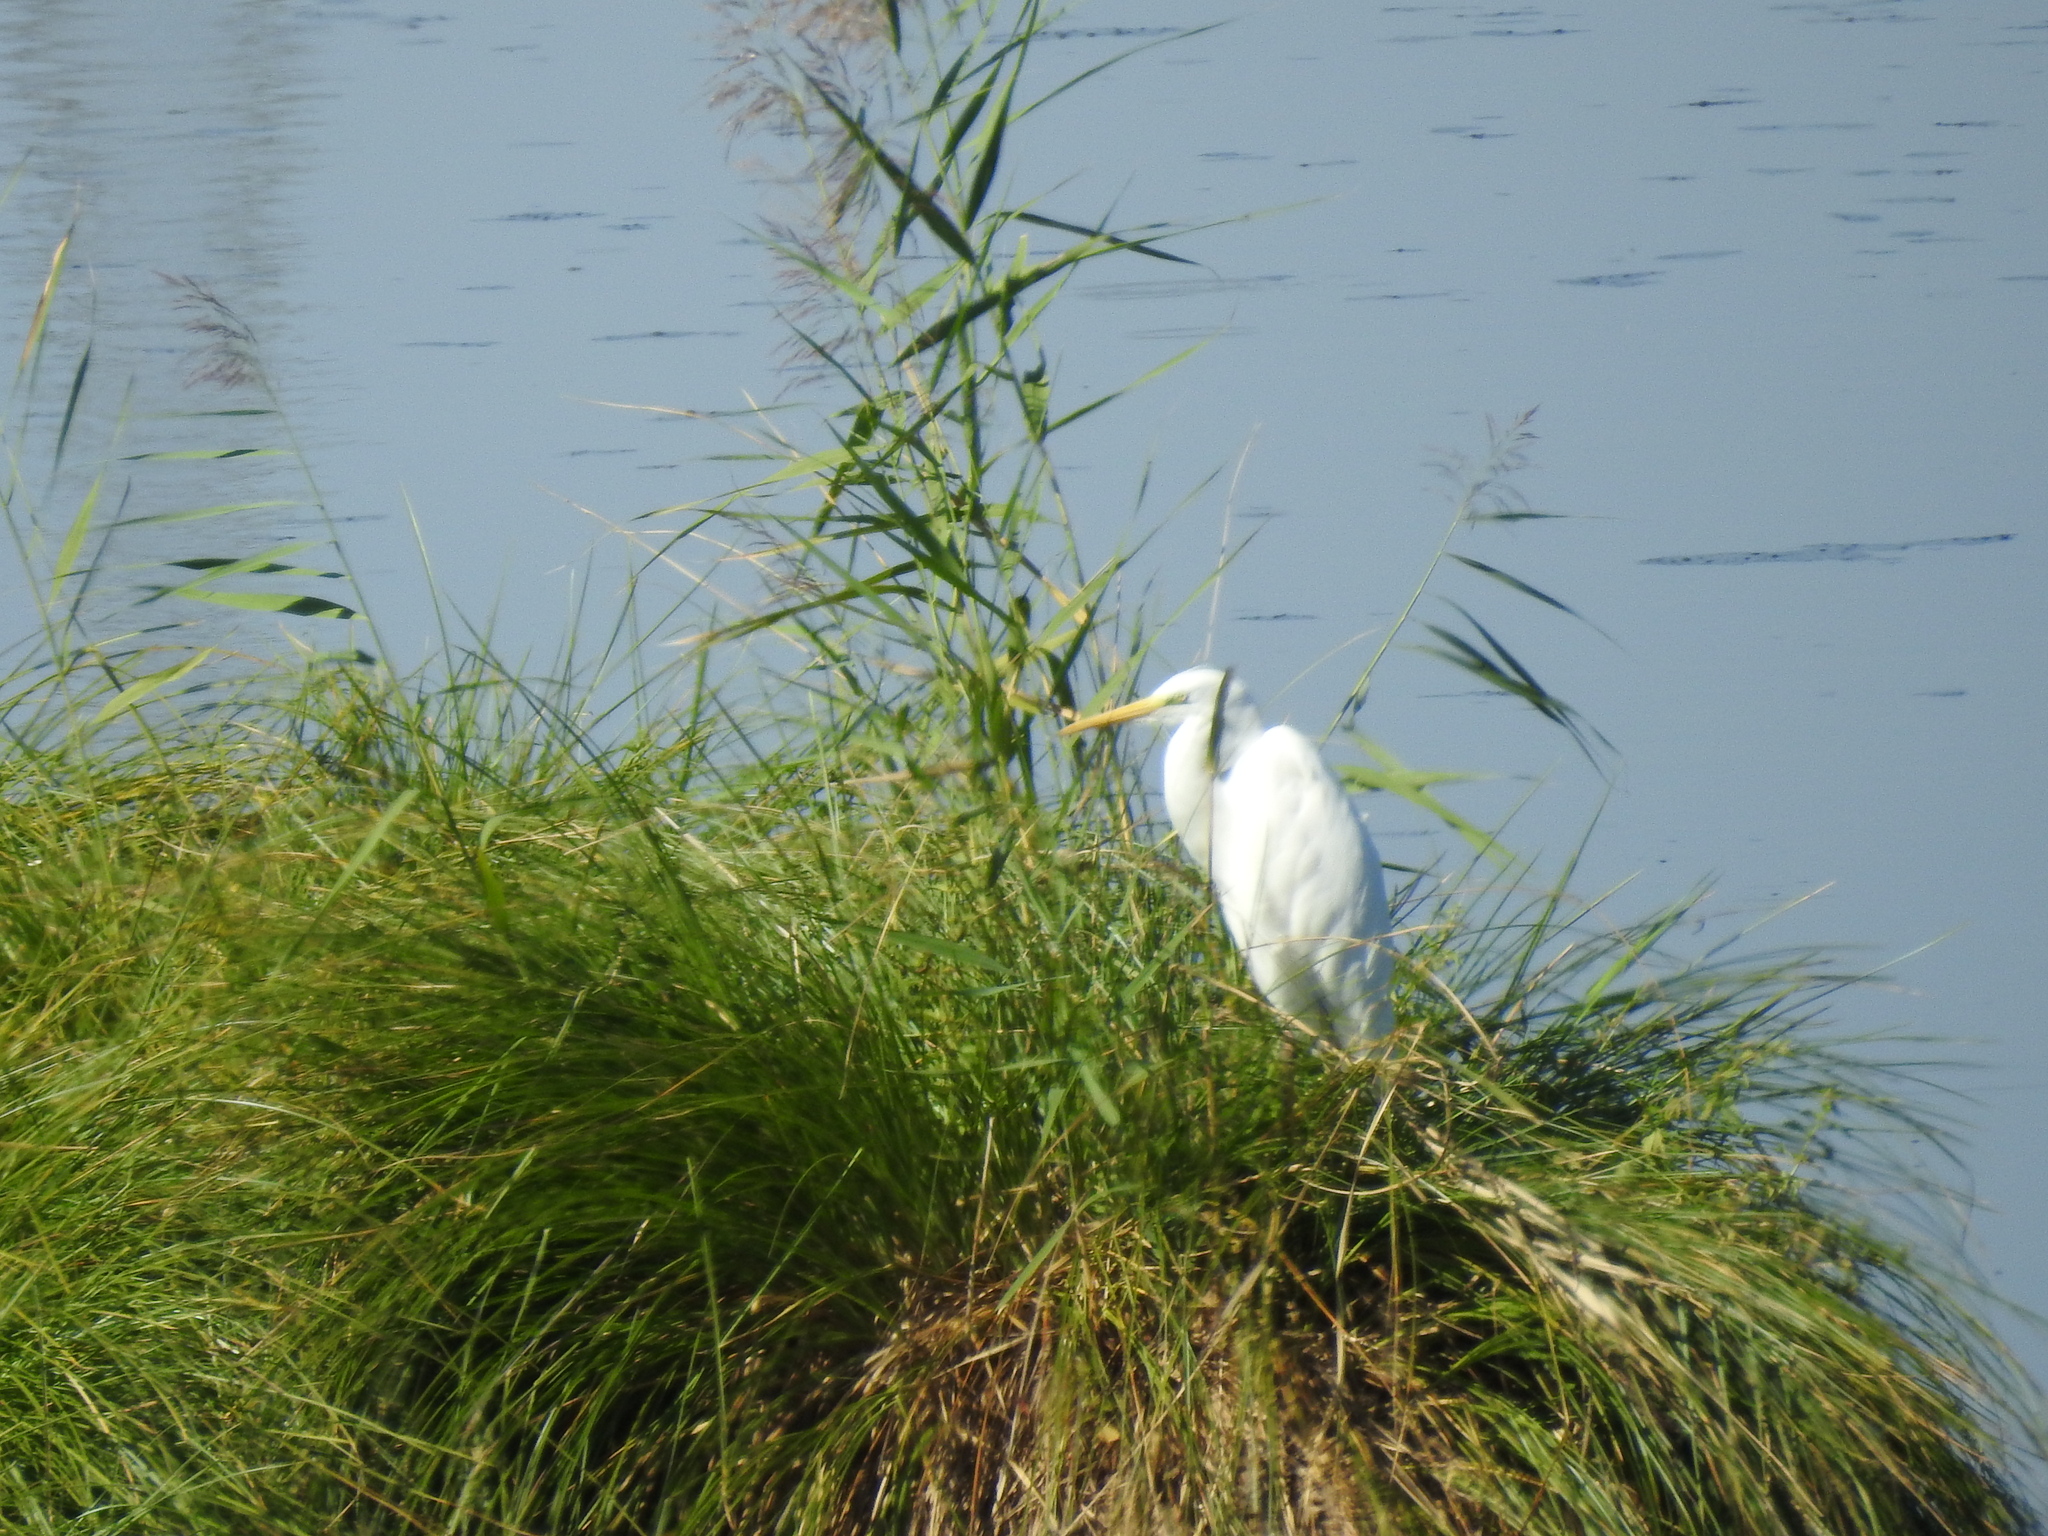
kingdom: Animalia
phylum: Chordata
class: Aves
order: Pelecaniformes
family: Ardeidae
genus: Ardea
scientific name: Ardea alba
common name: Great egret
